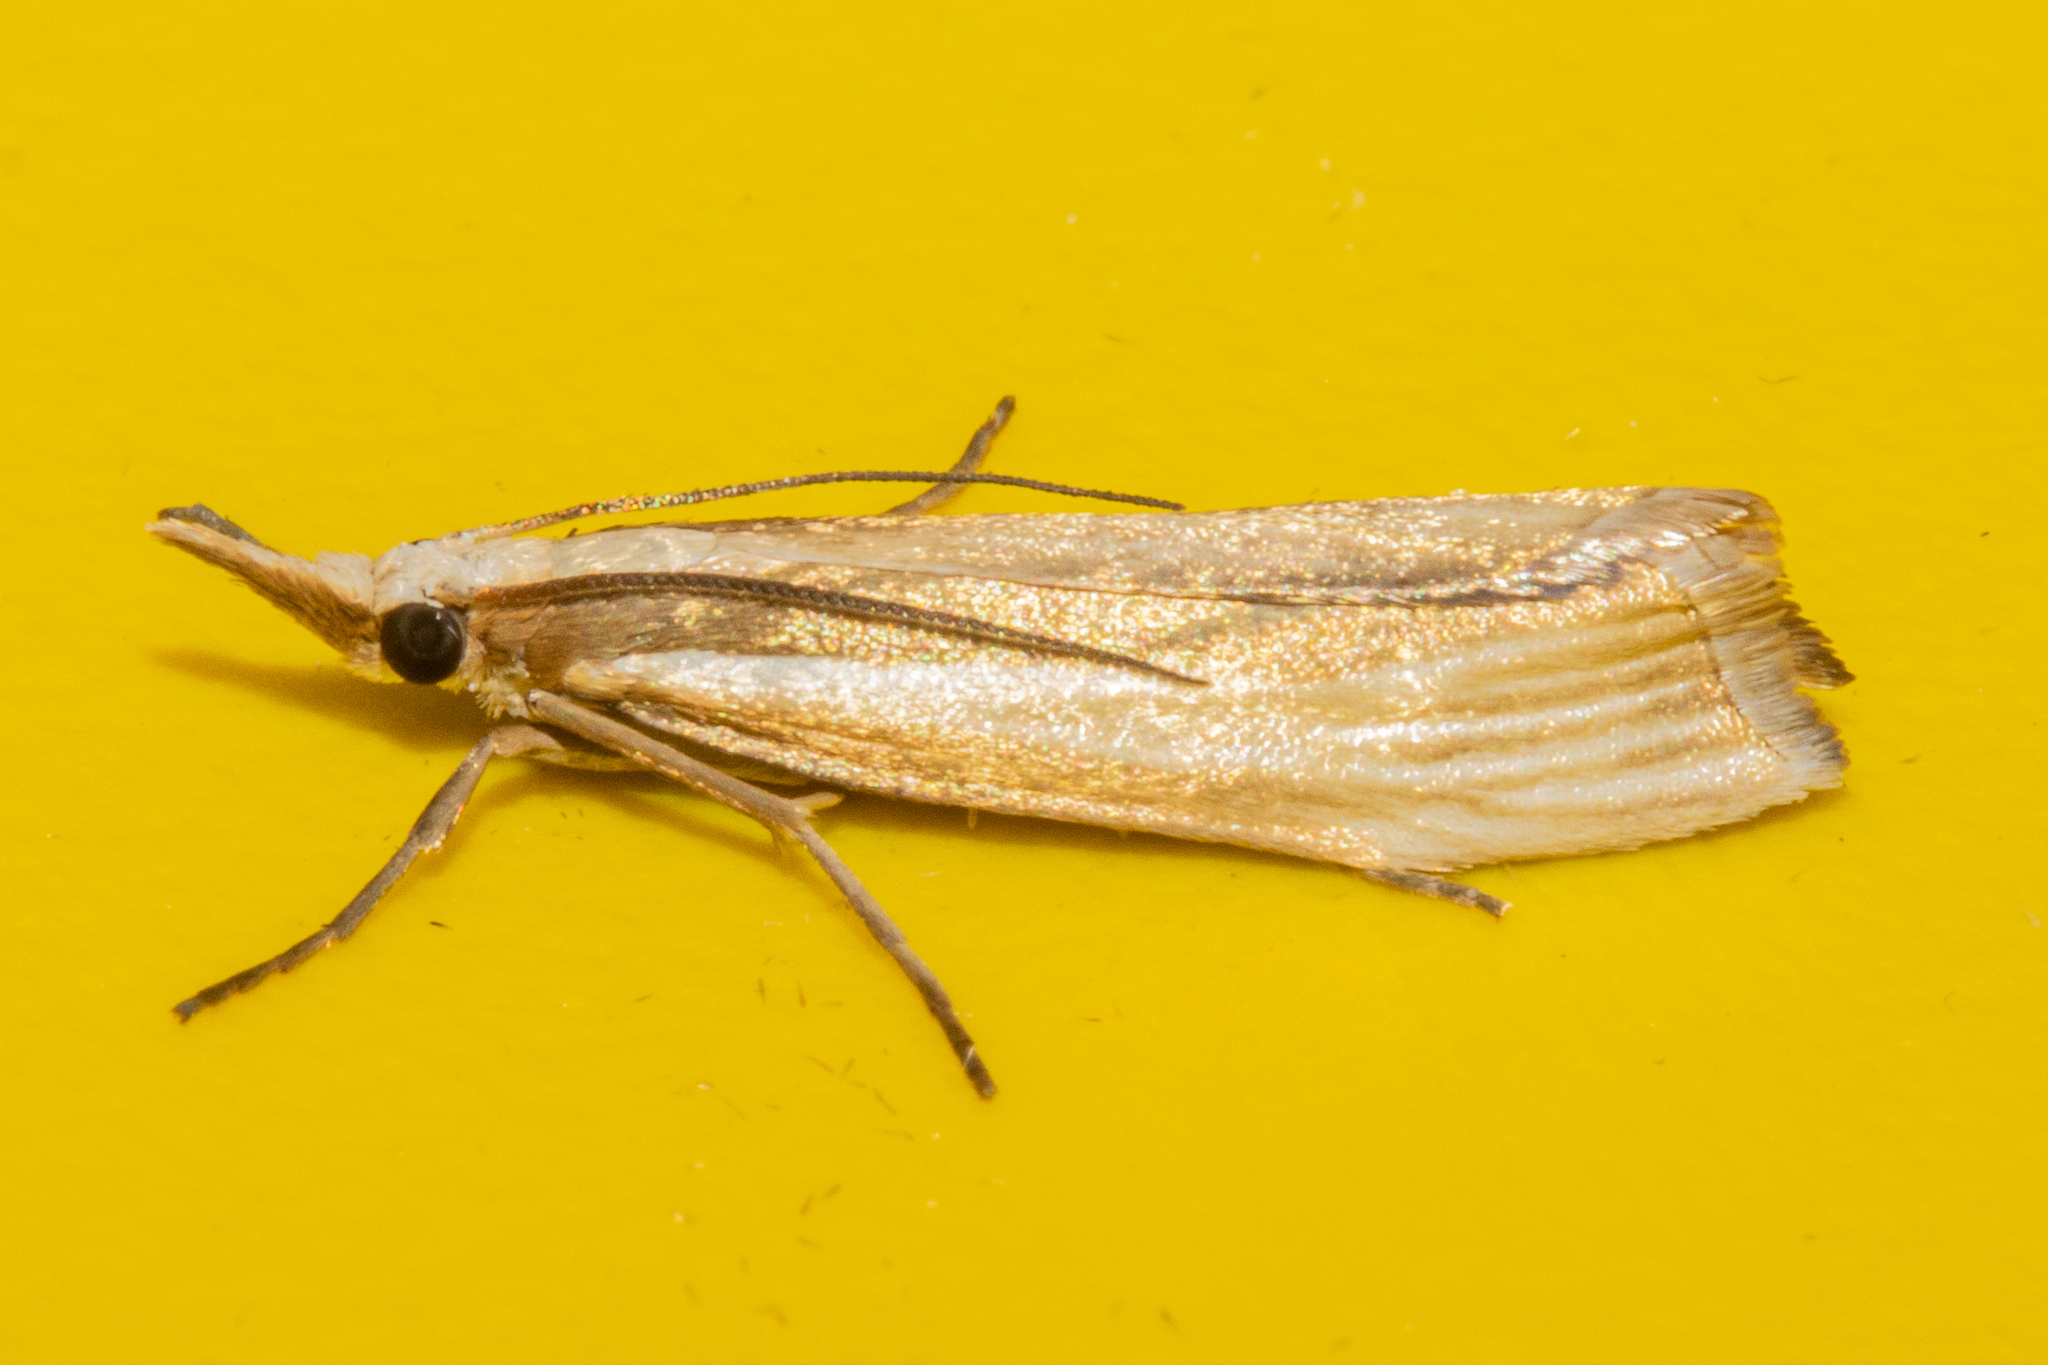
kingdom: Animalia
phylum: Arthropoda
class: Insecta
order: Lepidoptera
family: Crambidae
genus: Orocrambus
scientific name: Orocrambus ramosellus
